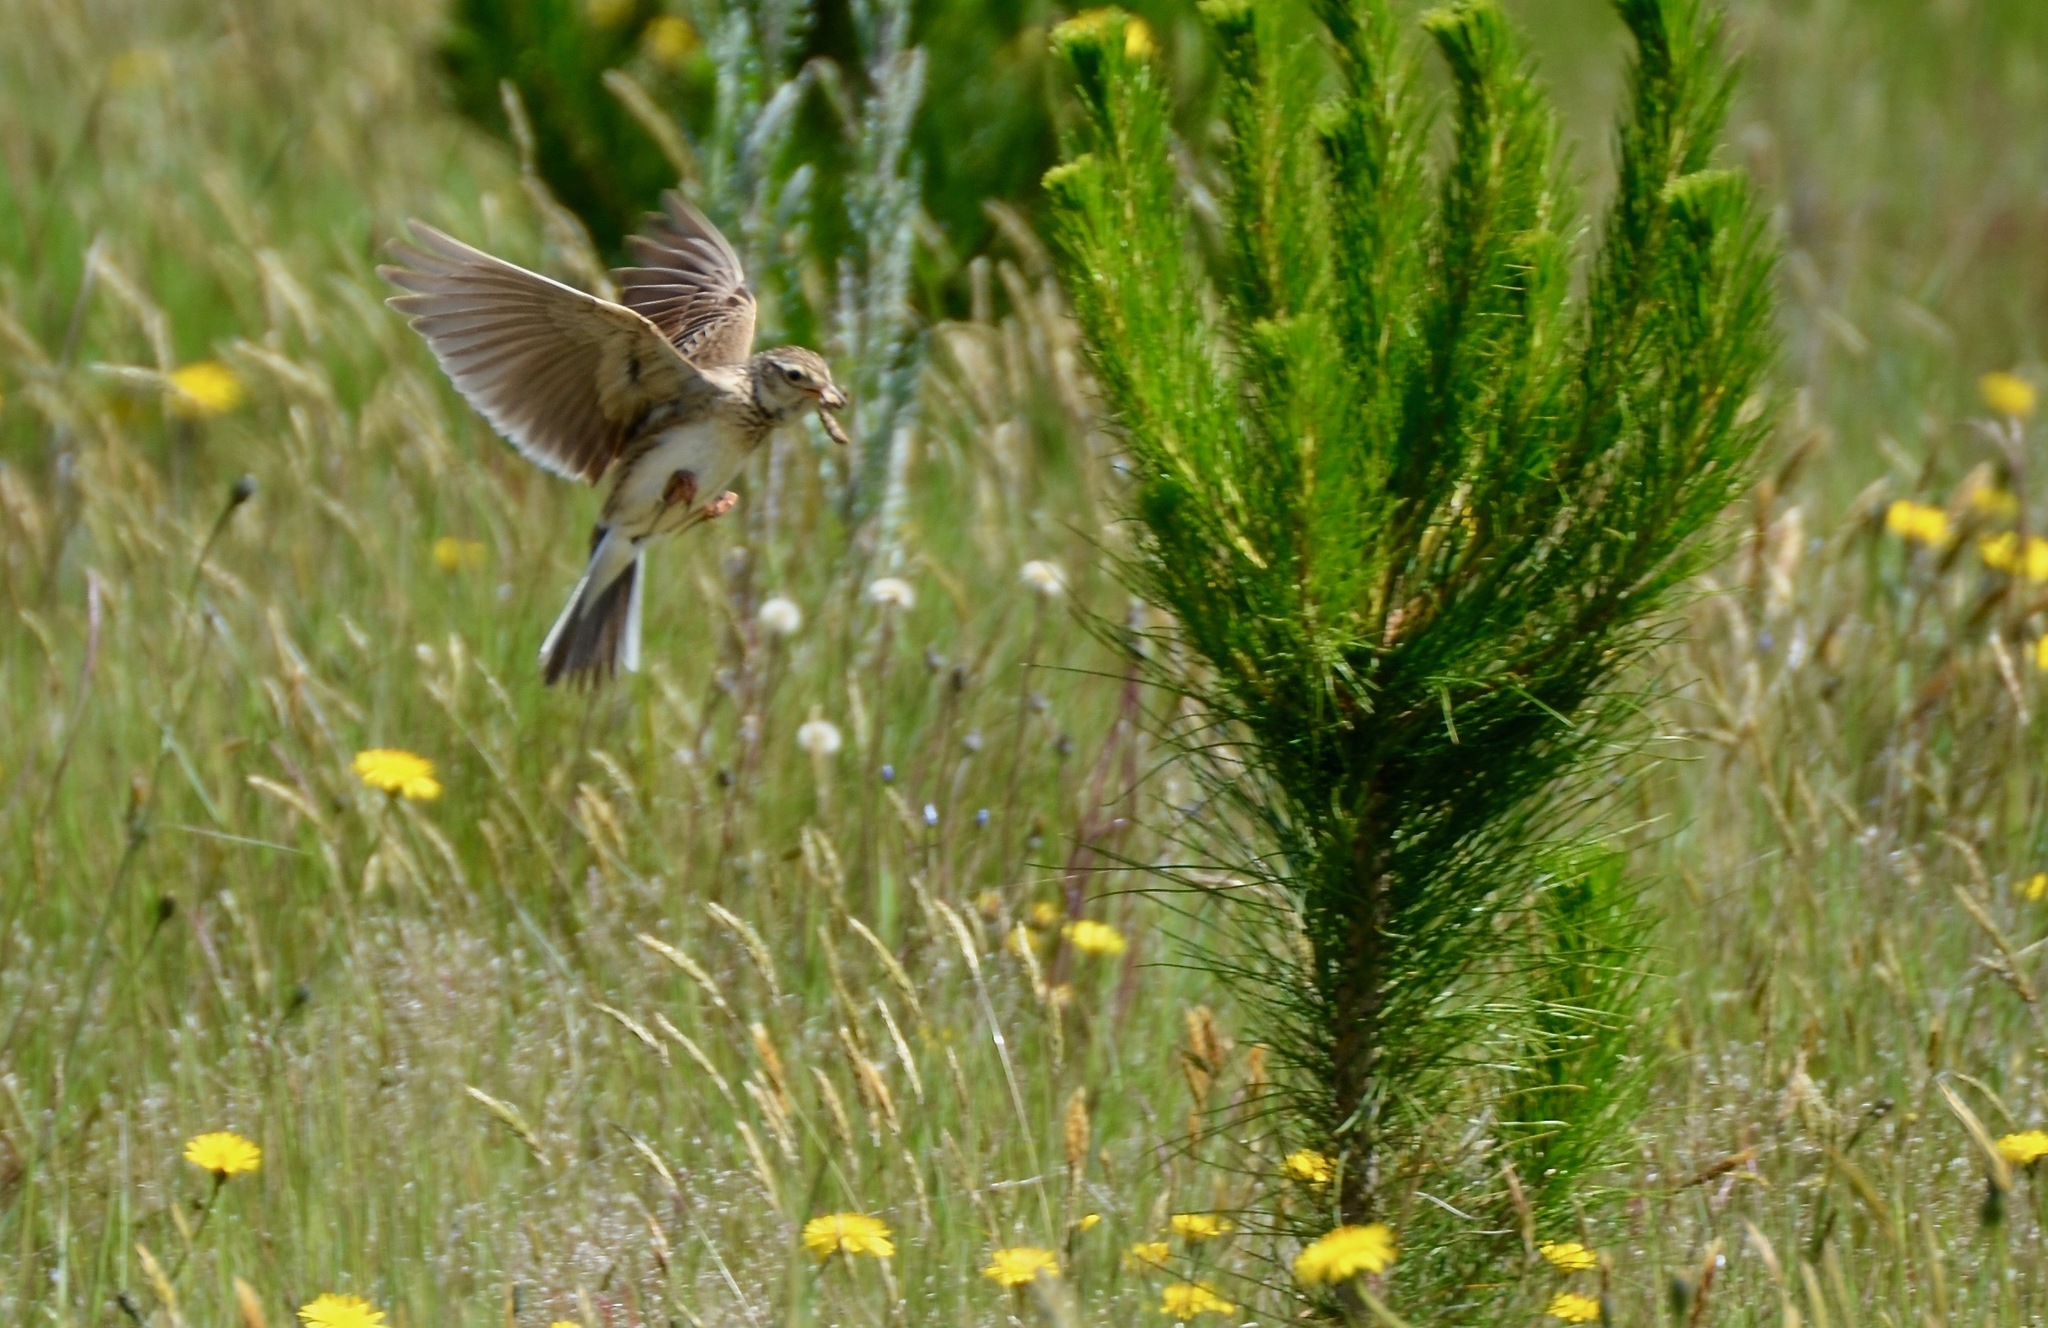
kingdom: Animalia
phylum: Chordata
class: Aves
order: Passeriformes
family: Alaudidae
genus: Alauda
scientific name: Alauda arvensis
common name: Eurasian skylark
